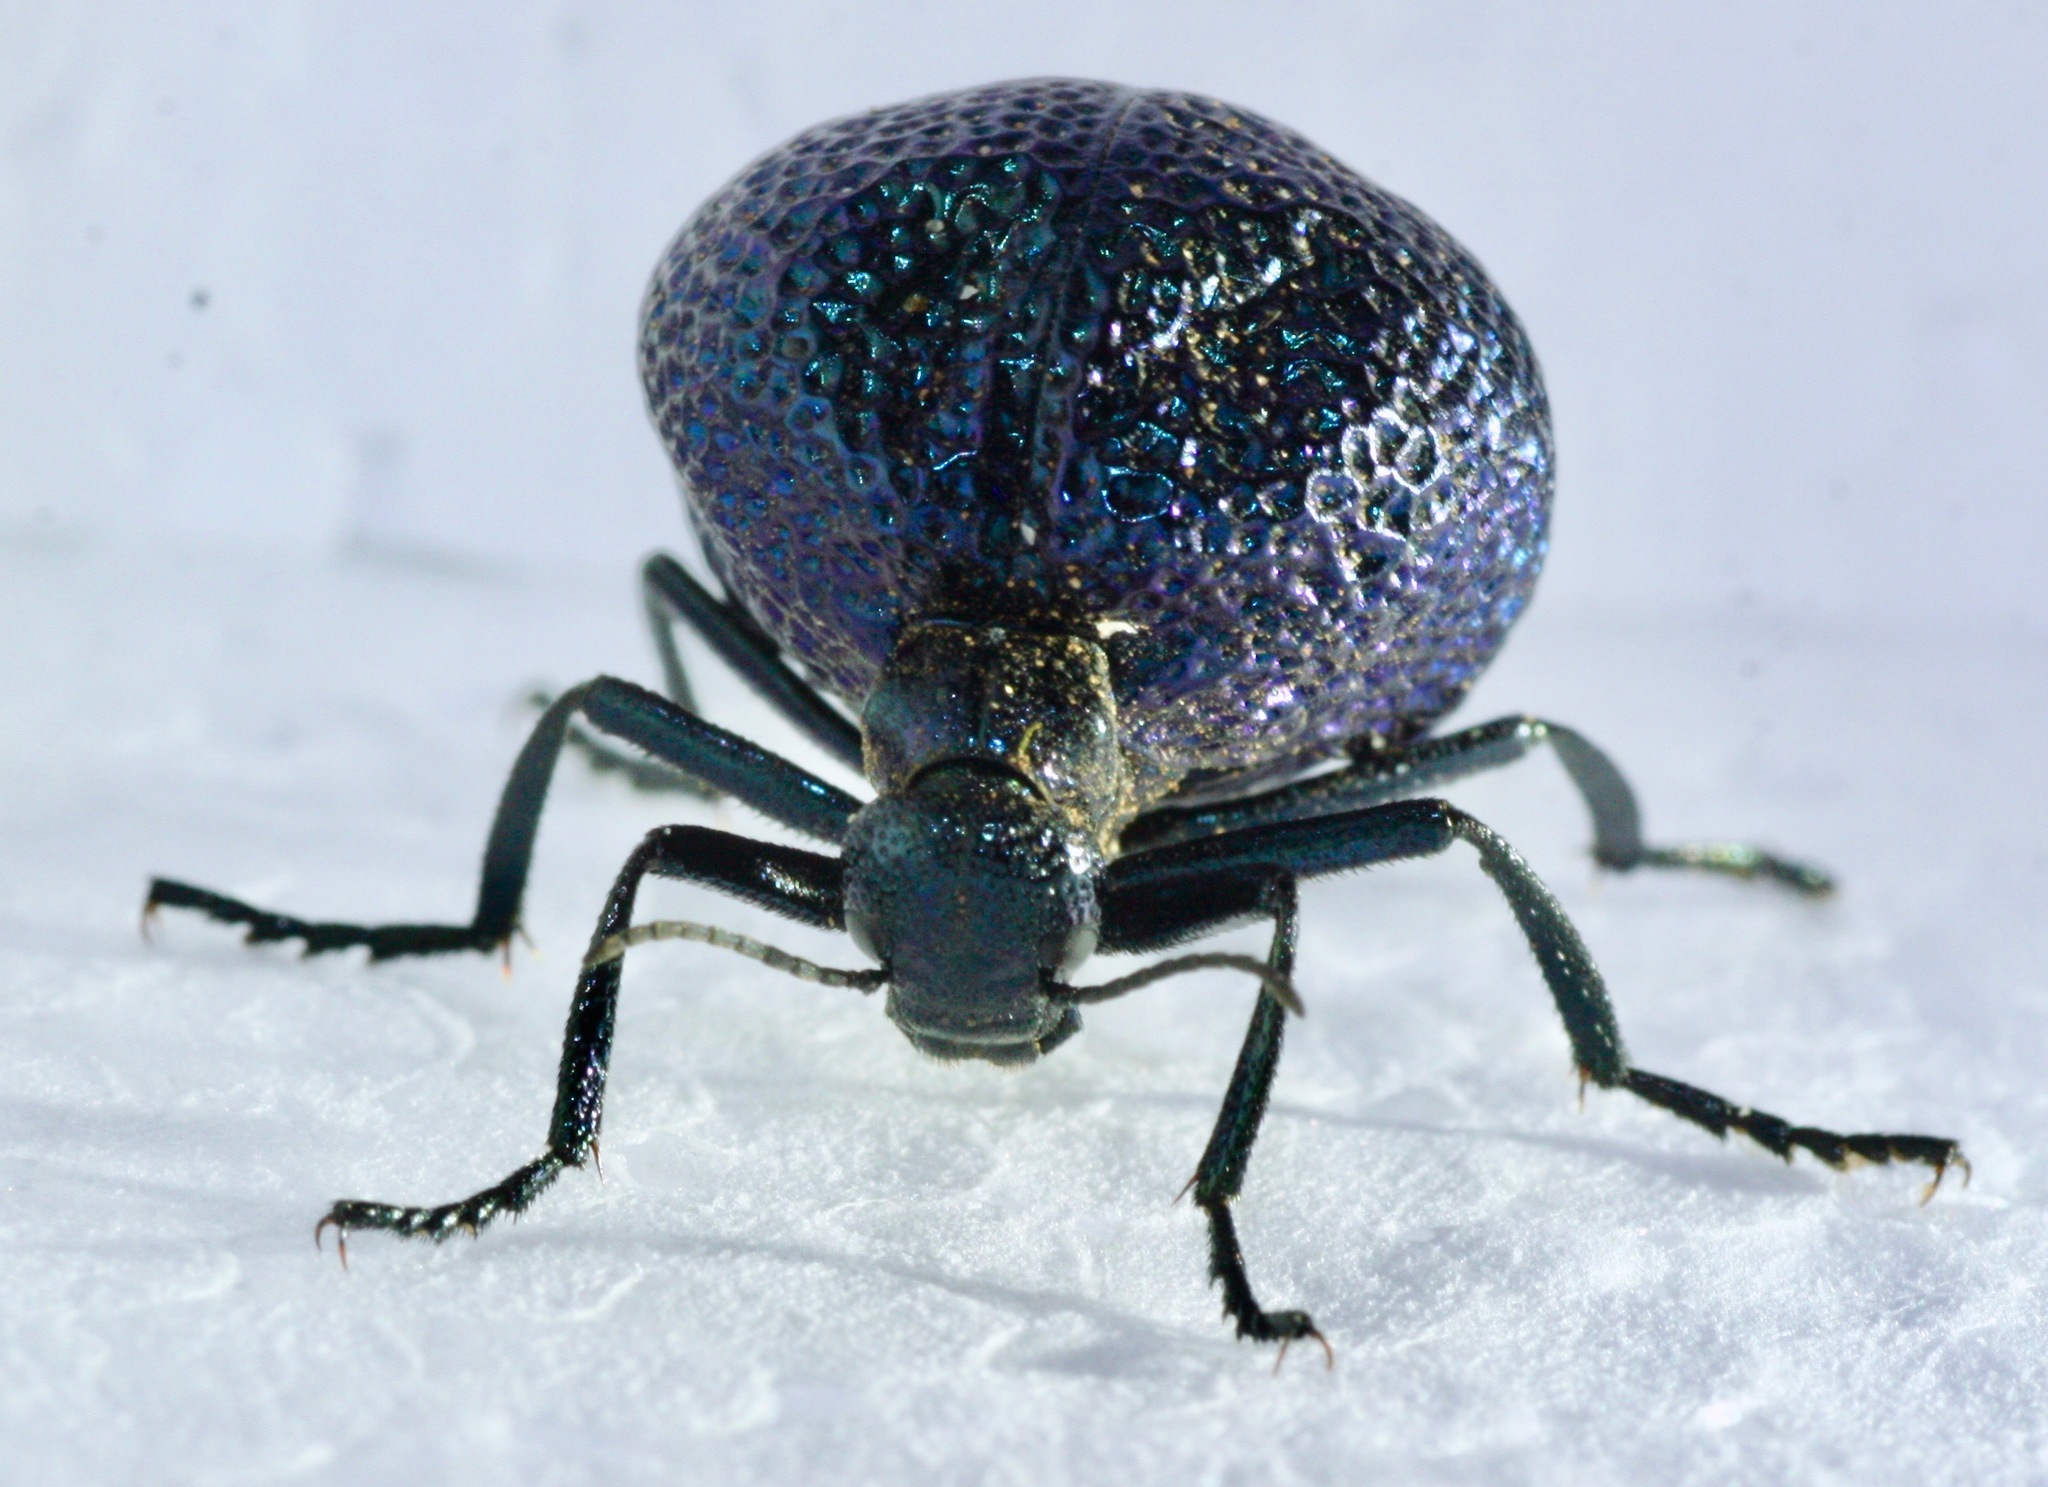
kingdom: Animalia
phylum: Arthropoda
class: Insecta
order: Coleoptera
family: Meloidae
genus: Cysteodemus
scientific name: Cysteodemus wislizeni
